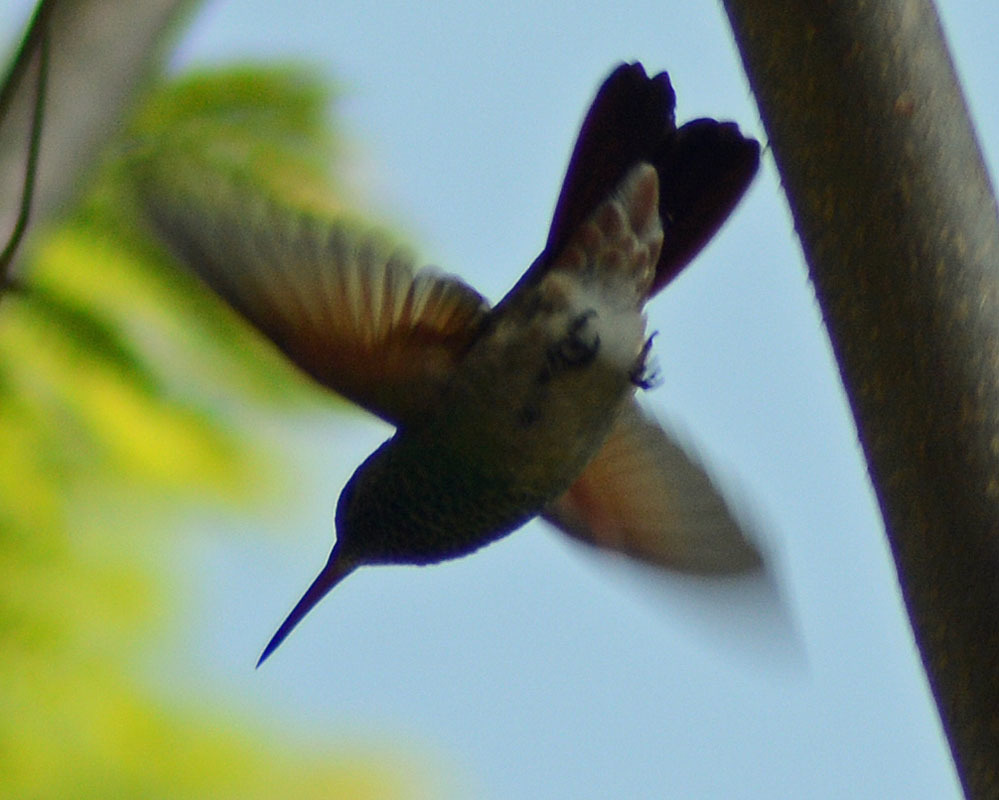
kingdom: Animalia
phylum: Chordata
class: Aves
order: Apodiformes
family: Trochilidae
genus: Saucerottia
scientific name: Saucerottia beryllina
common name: Berylline hummingbird
